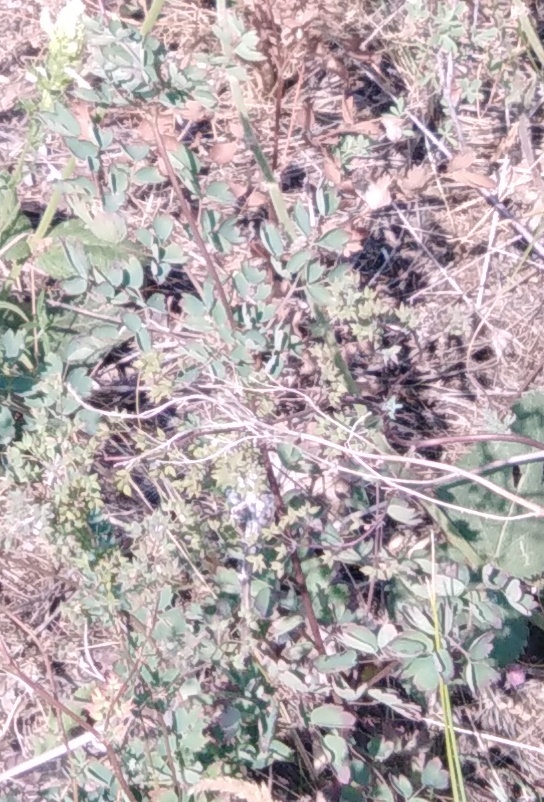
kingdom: Plantae
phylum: Tracheophyta
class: Magnoliopsida
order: Ranunculales
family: Ranunculaceae
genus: Thalictrum
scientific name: Thalictrum minus
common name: Lesser meadow-rue
